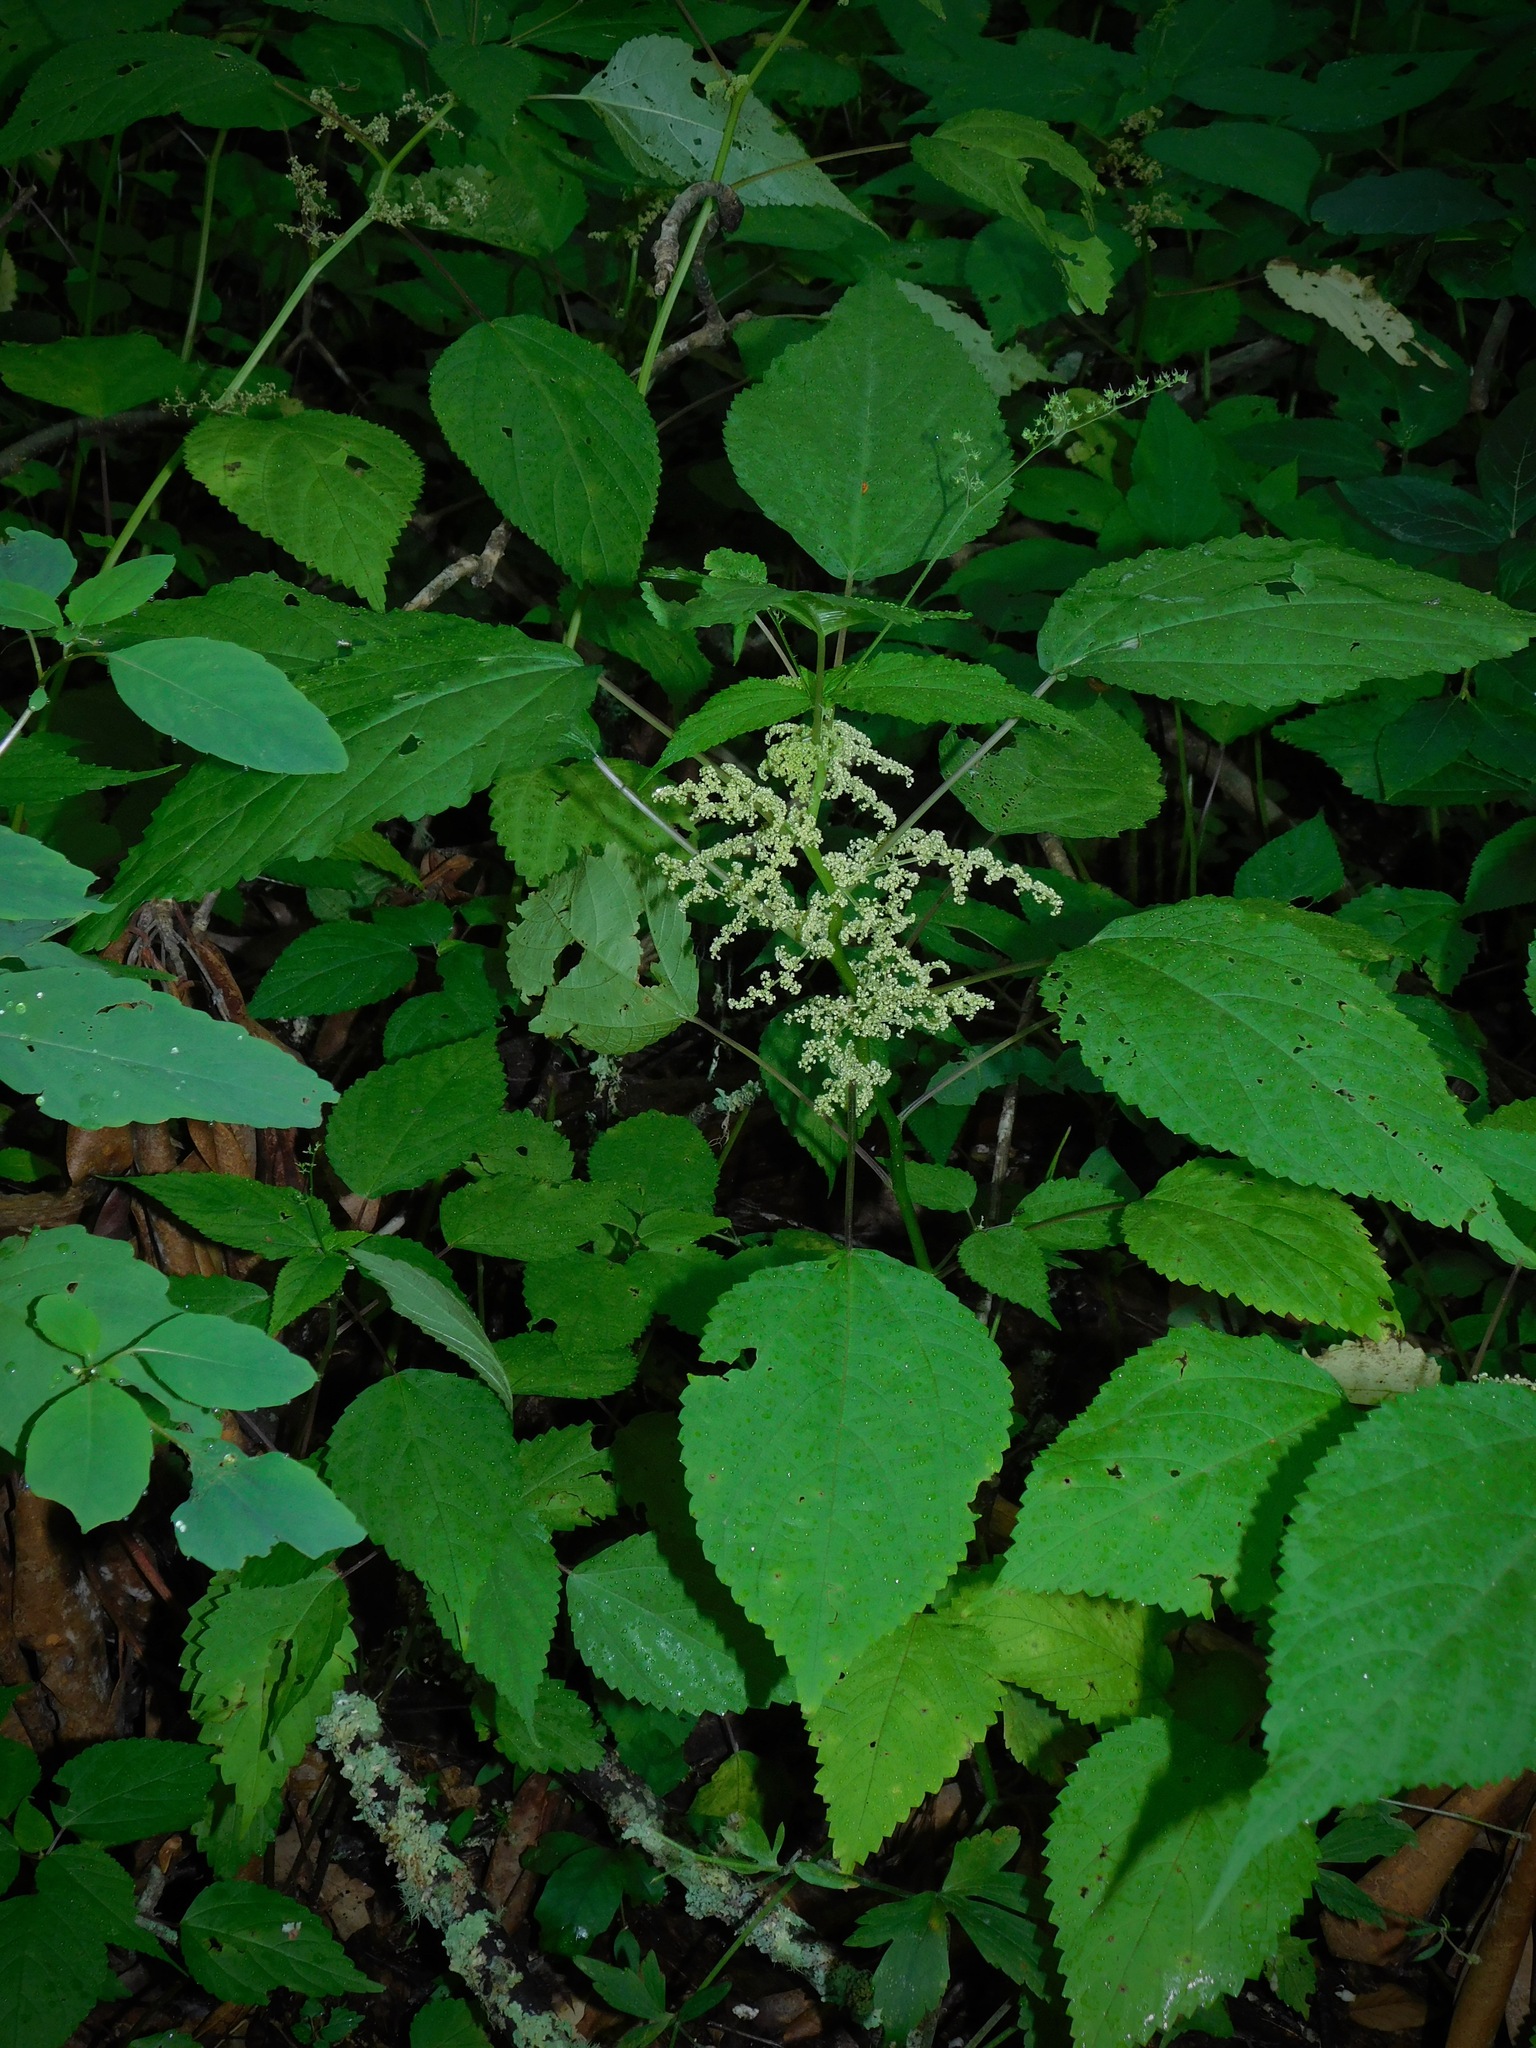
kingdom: Plantae
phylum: Tracheophyta
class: Magnoliopsida
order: Rosales
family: Urticaceae
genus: Laportea
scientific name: Laportea canadensis
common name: Canada nettle
